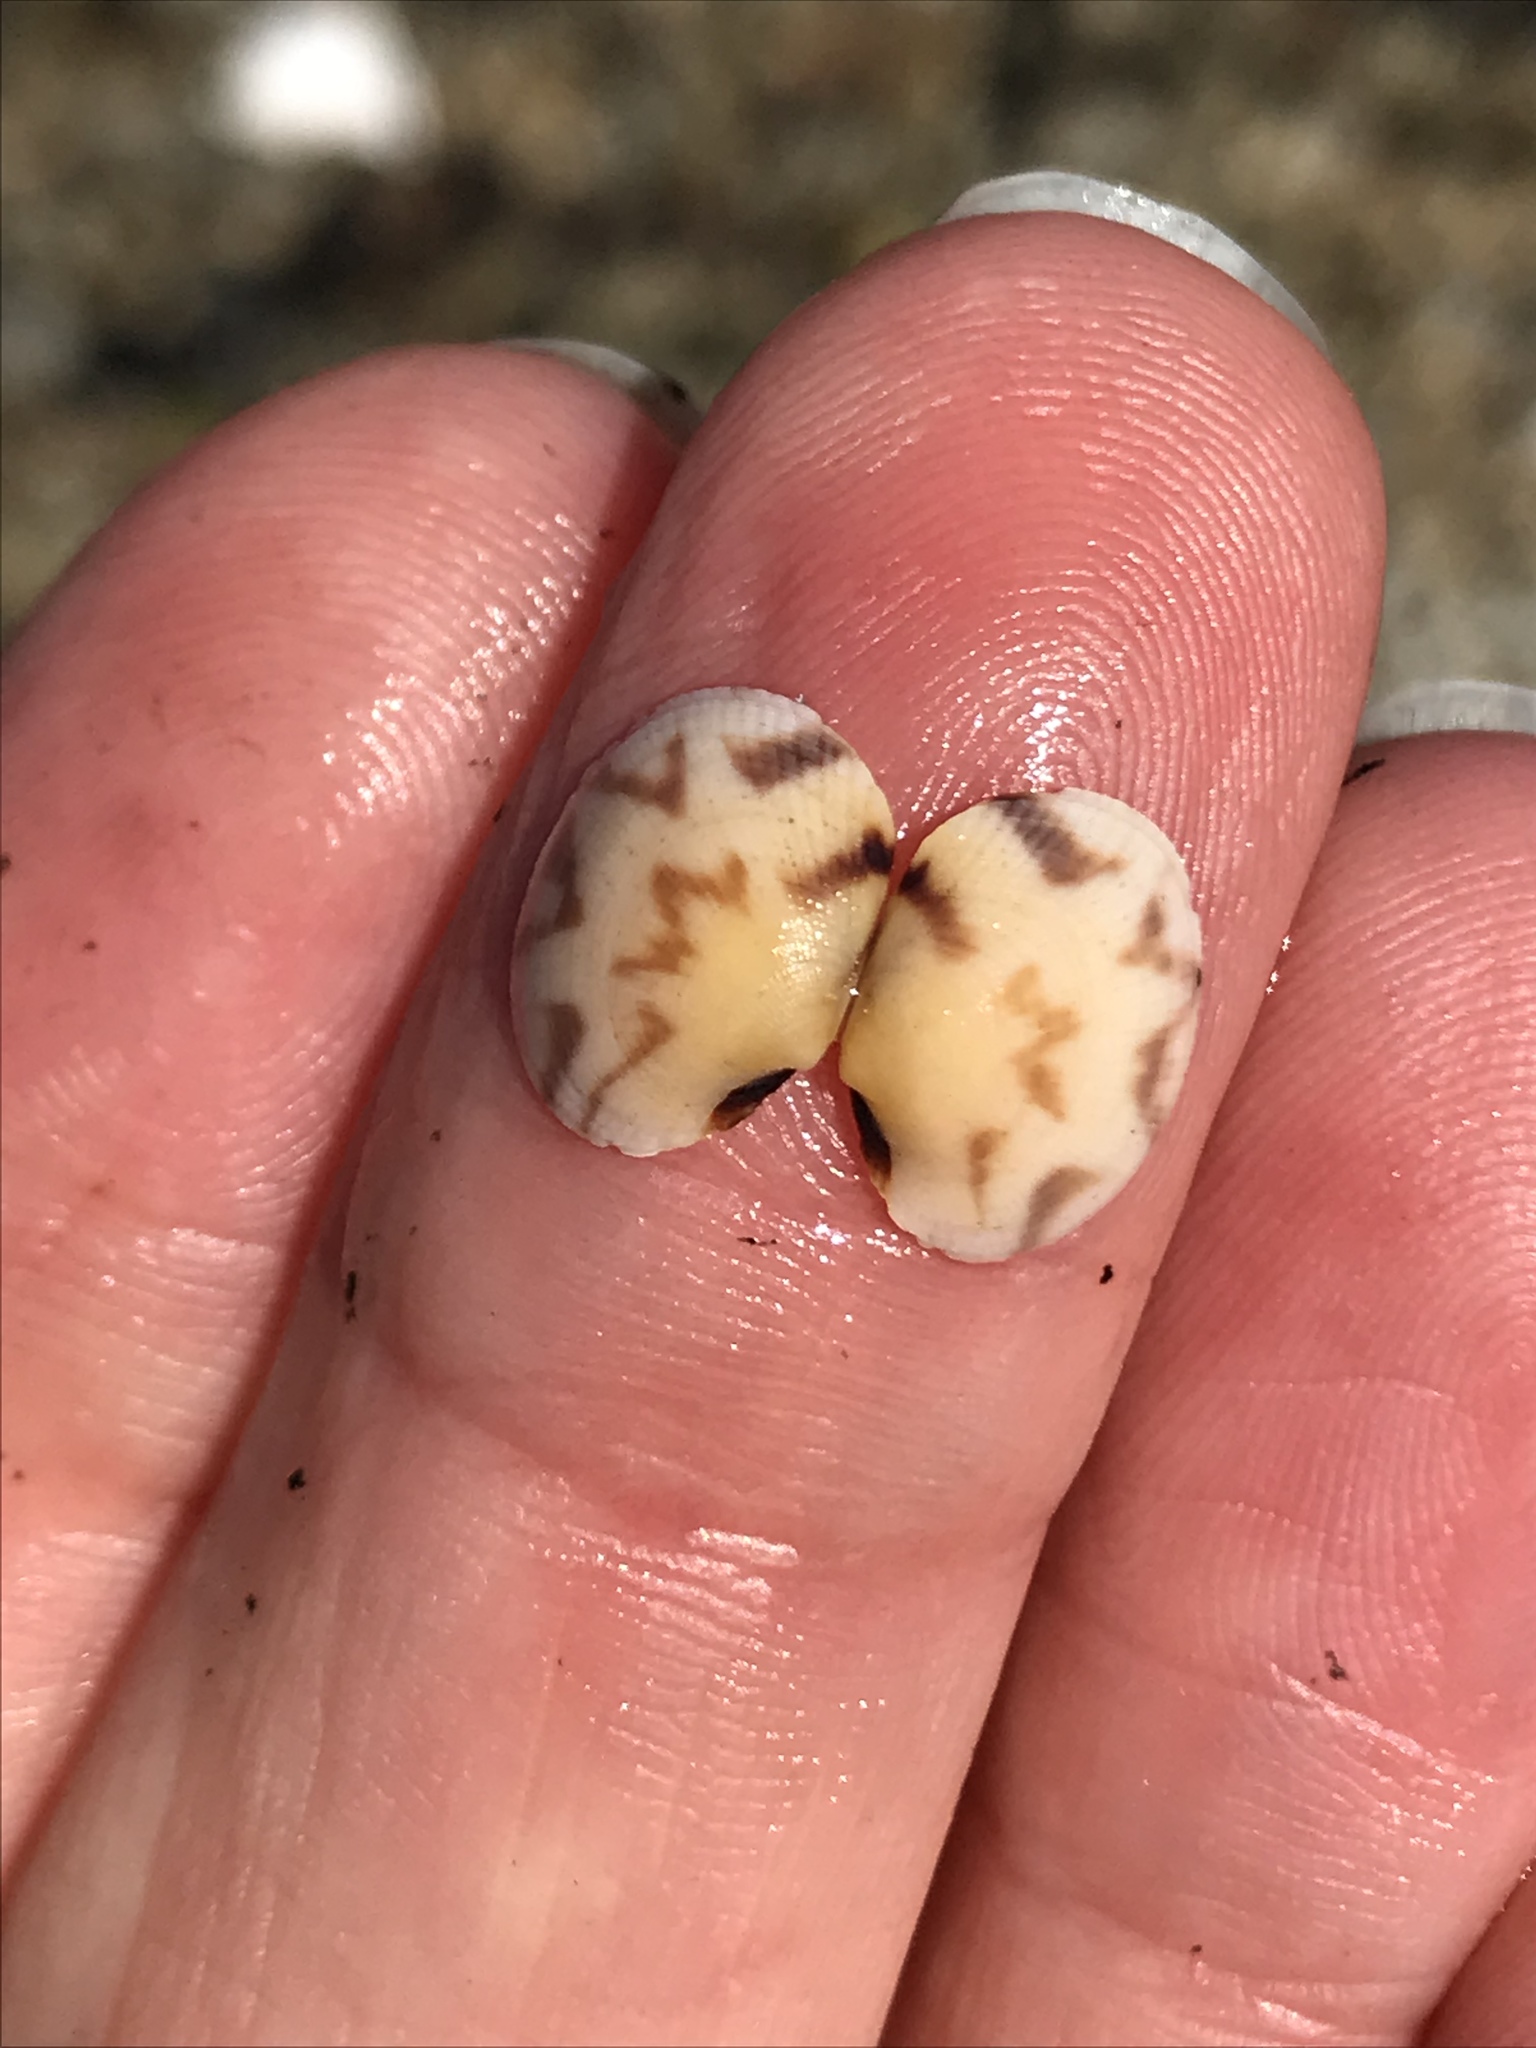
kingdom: Animalia
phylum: Mollusca
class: Bivalvia
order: Venerida
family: Veneridae
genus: Ruditapes
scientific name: Ruditapes philippinarum
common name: Manila clam
